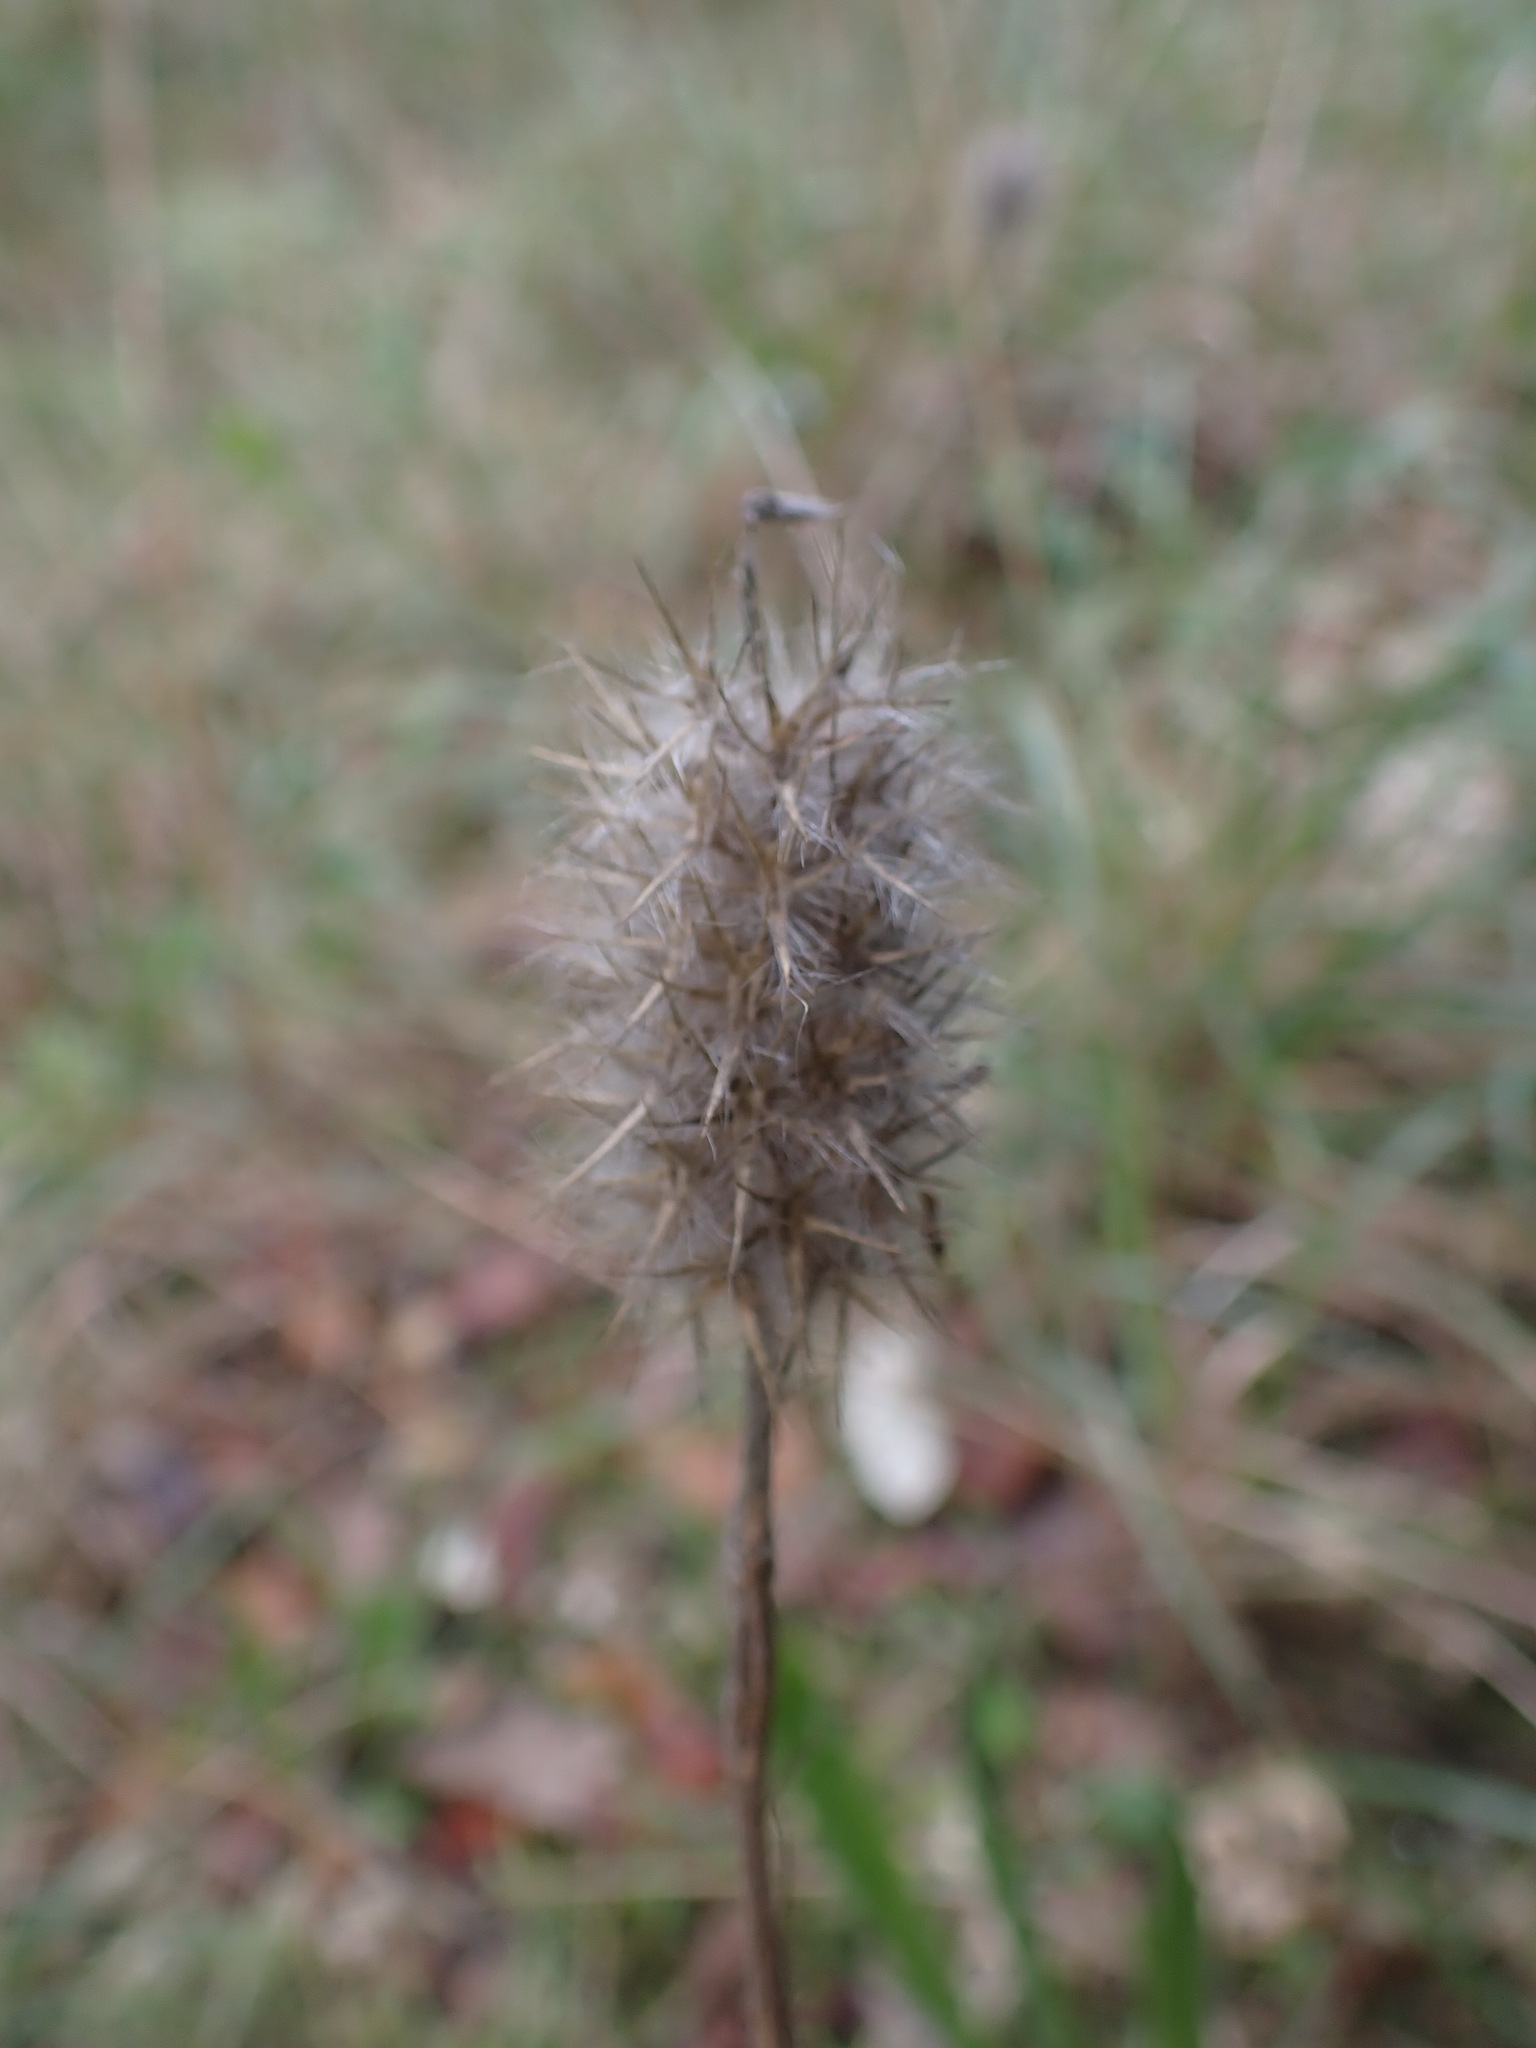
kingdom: Plantae
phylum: Tracheophyta
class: Magnoliopsida
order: Fabales
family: Fabaceae
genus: Trifolium
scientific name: Trifolium angustifolium
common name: Narrow clover
